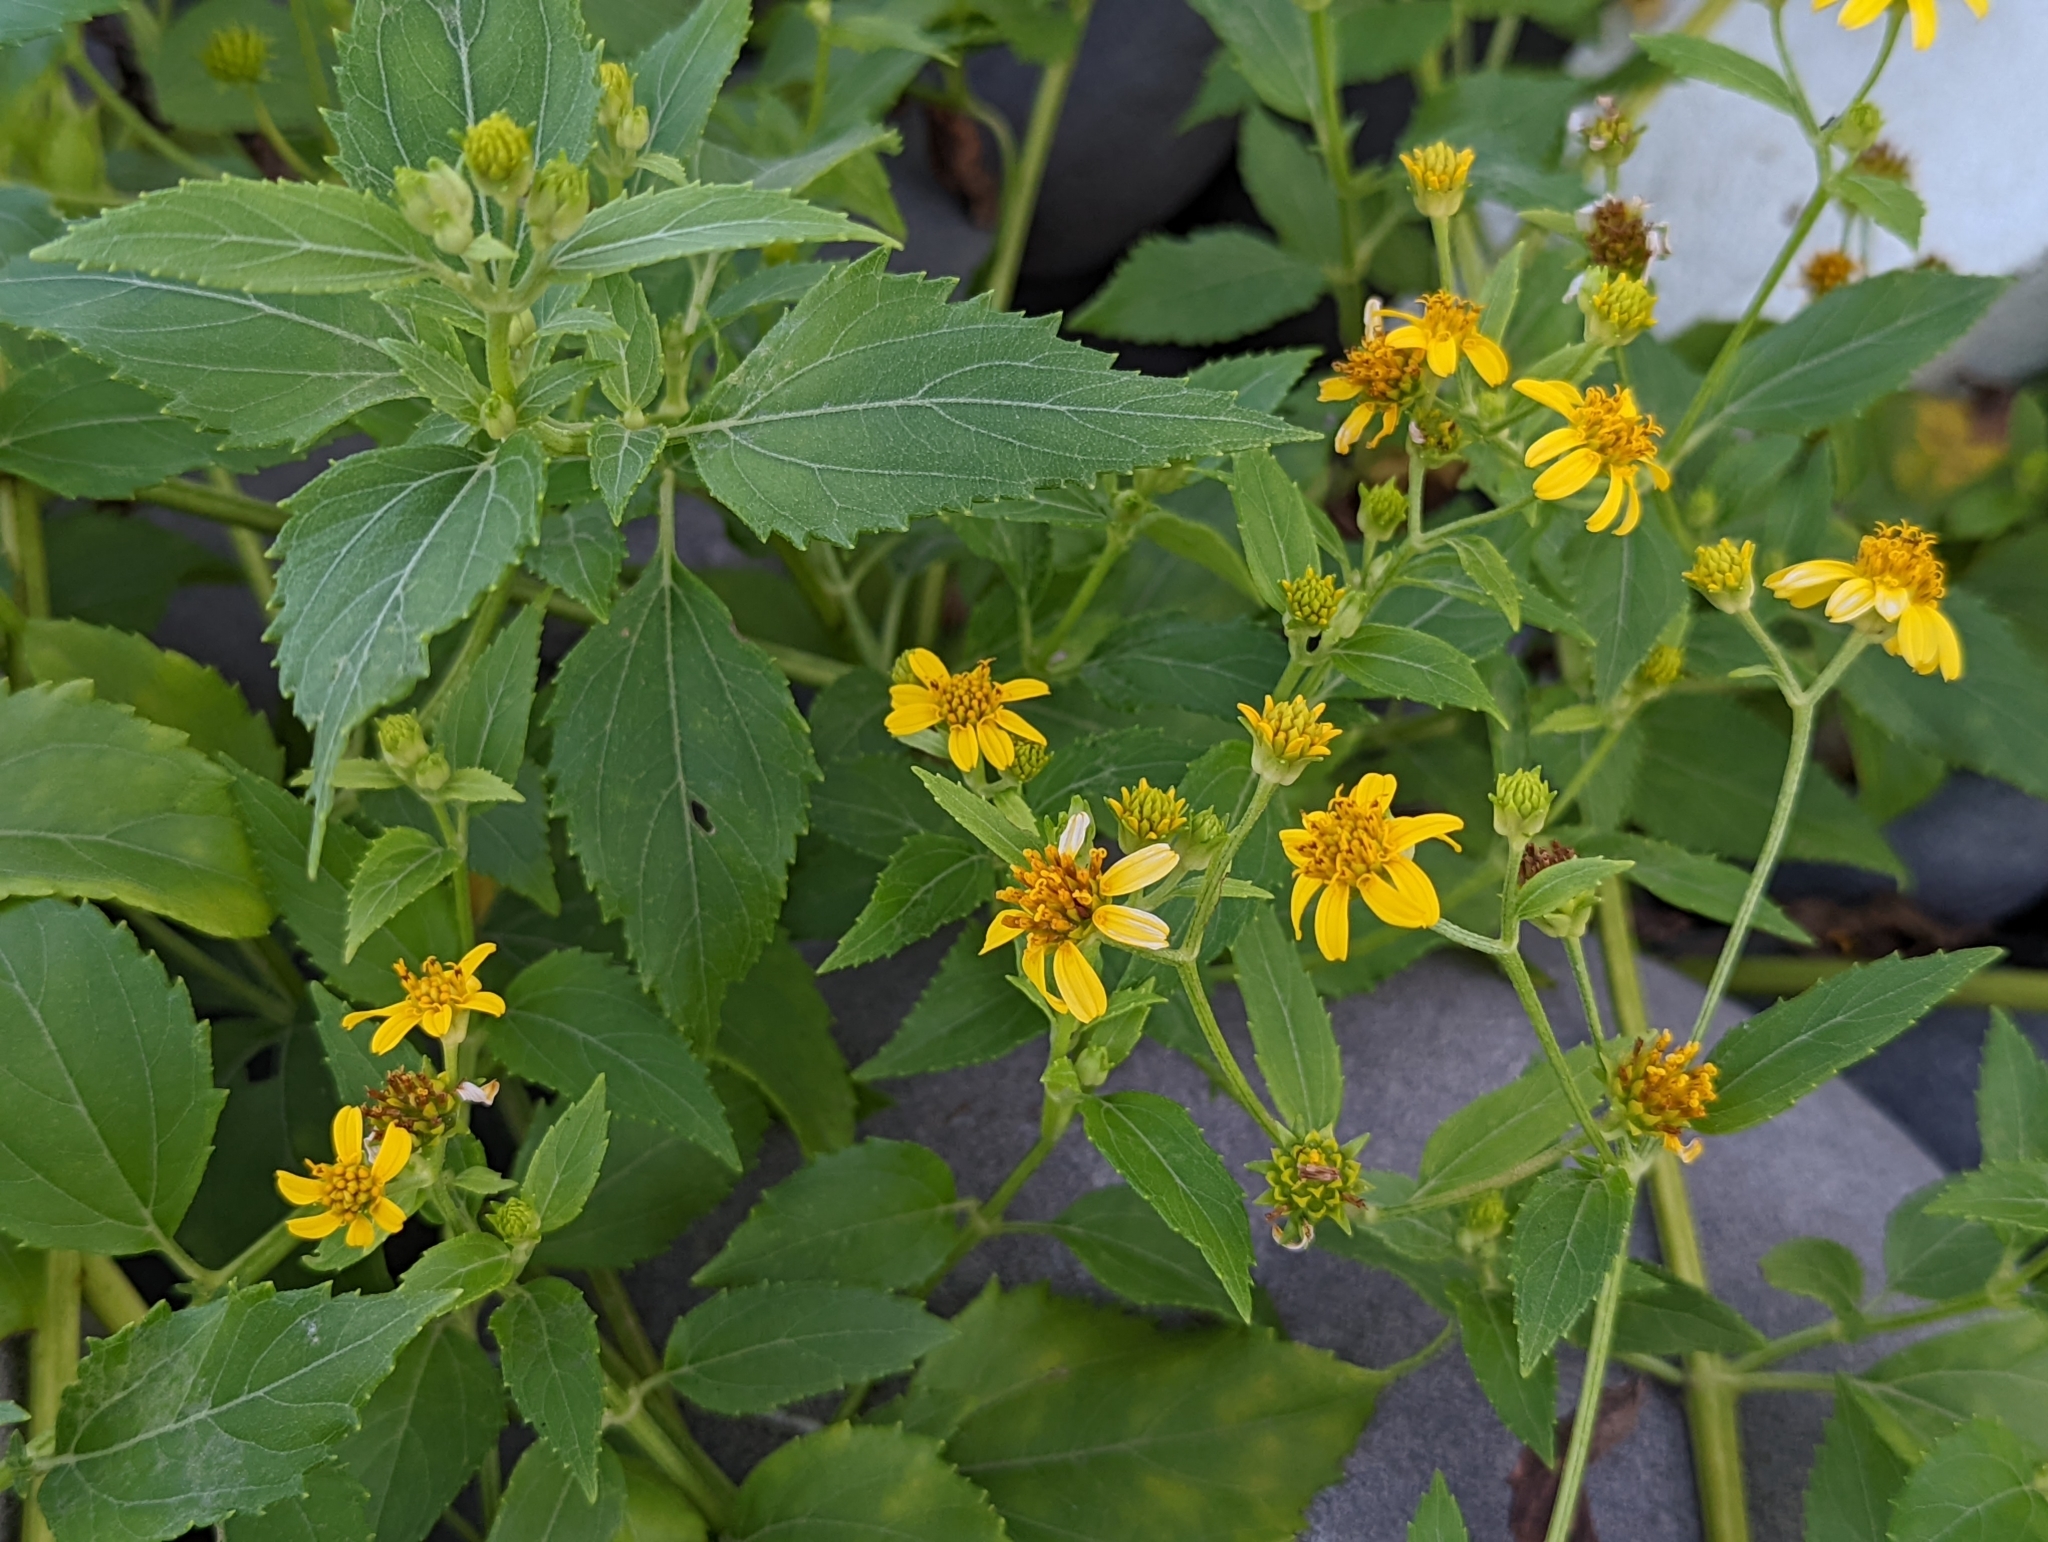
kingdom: Plantae
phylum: Tracheophyta
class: Magnoliopsida
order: Asterales
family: Asteraceae
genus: Wollastonia
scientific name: Wollastonia biflora
